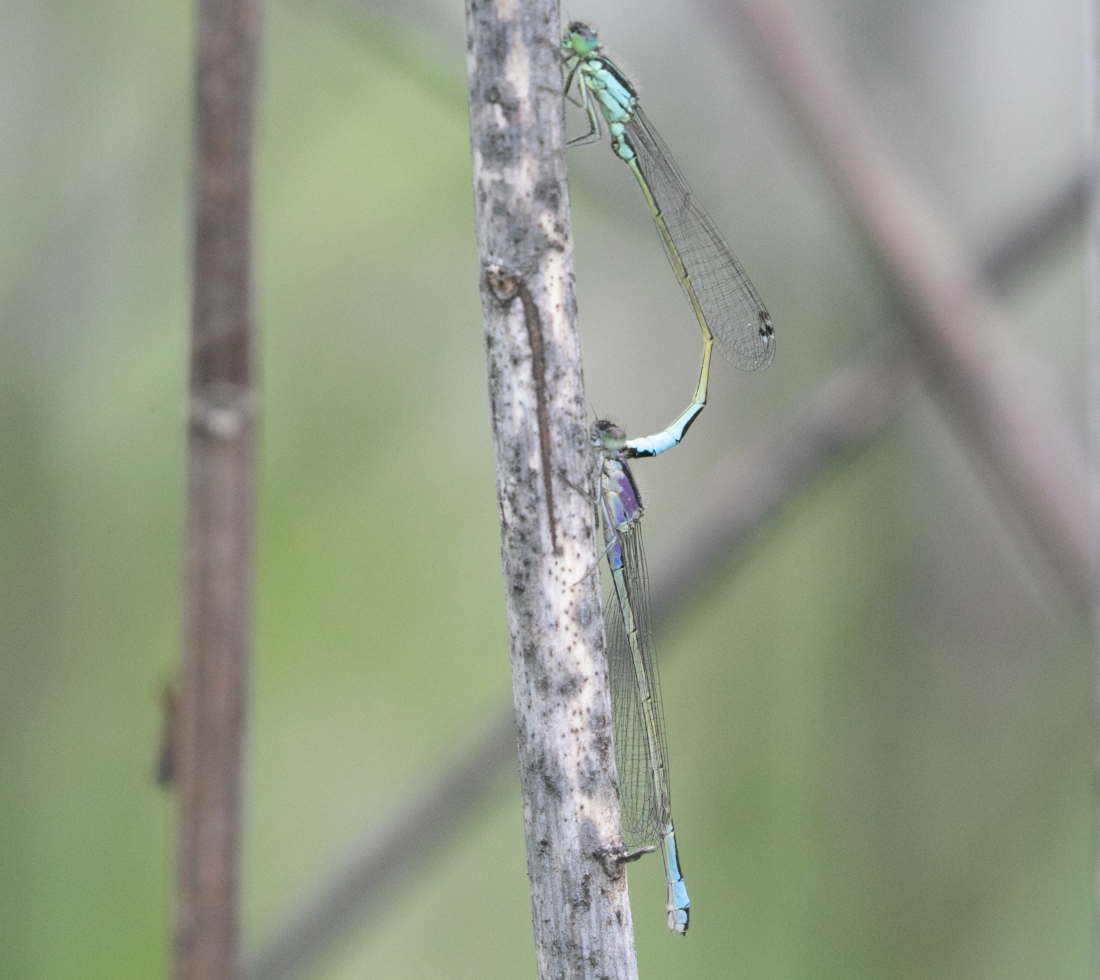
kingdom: Animalia
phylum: Arthropoda
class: Insecta
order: Odonata
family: Coenagrionidae
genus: Ischnura
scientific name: Ischnura elegans
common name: Blue-tailed damselfly
